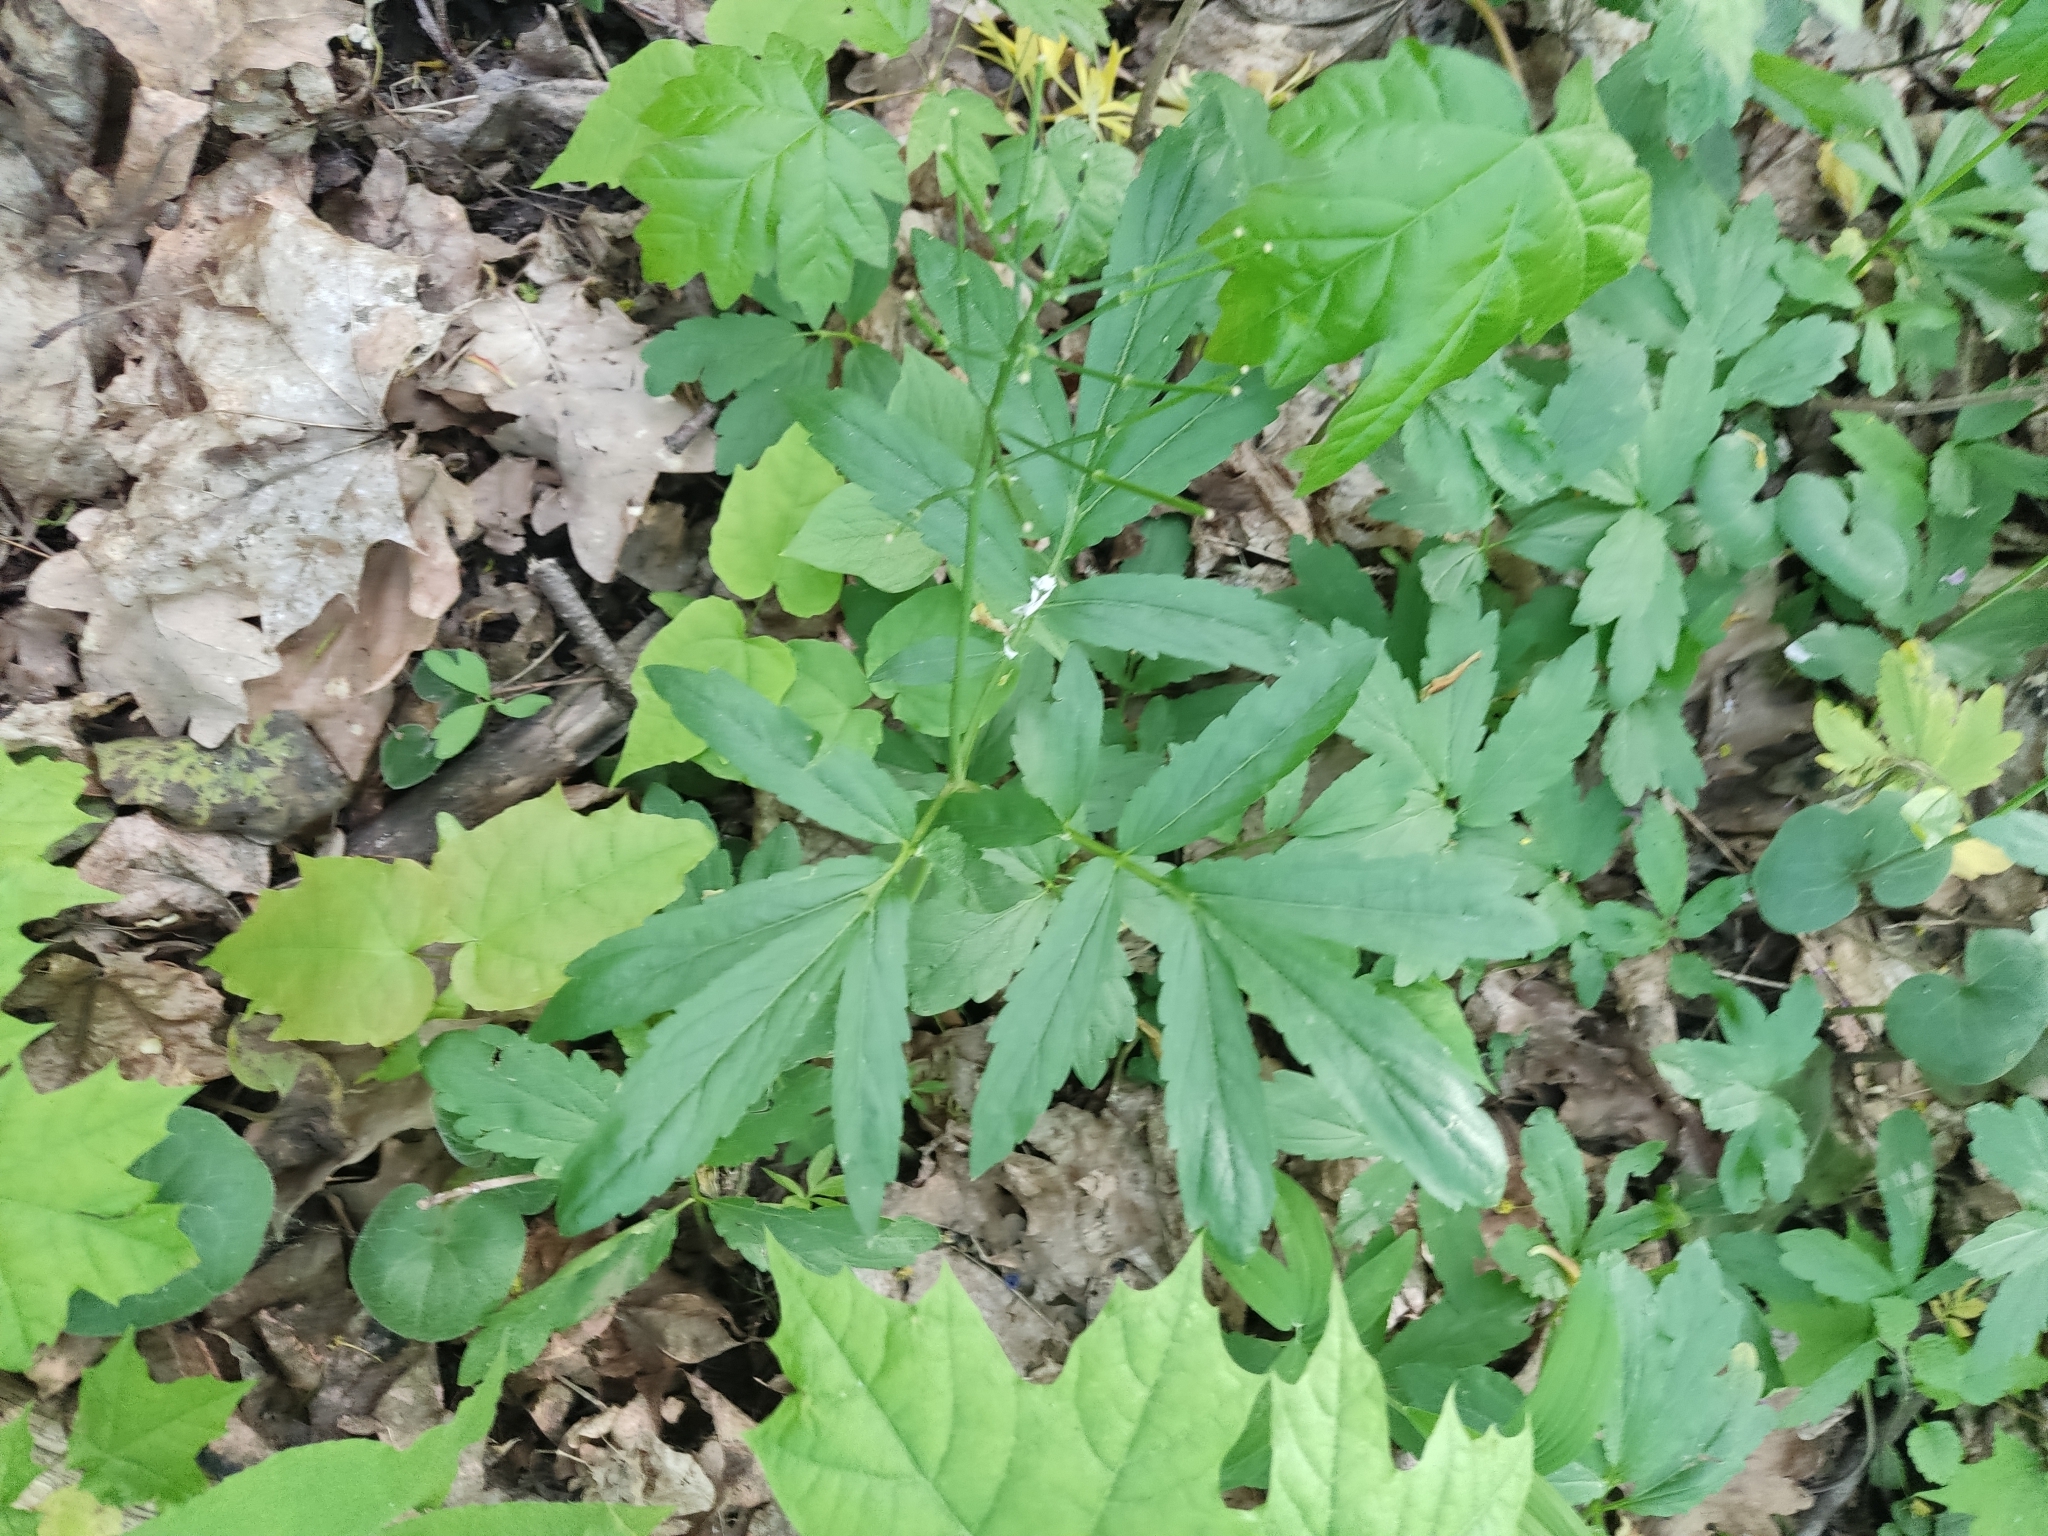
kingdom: Plantae
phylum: Tracheophyta
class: Magnoliopsida
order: Brassicales
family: Brassicaceae
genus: Cardamine
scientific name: Cardamine quinquefolia
